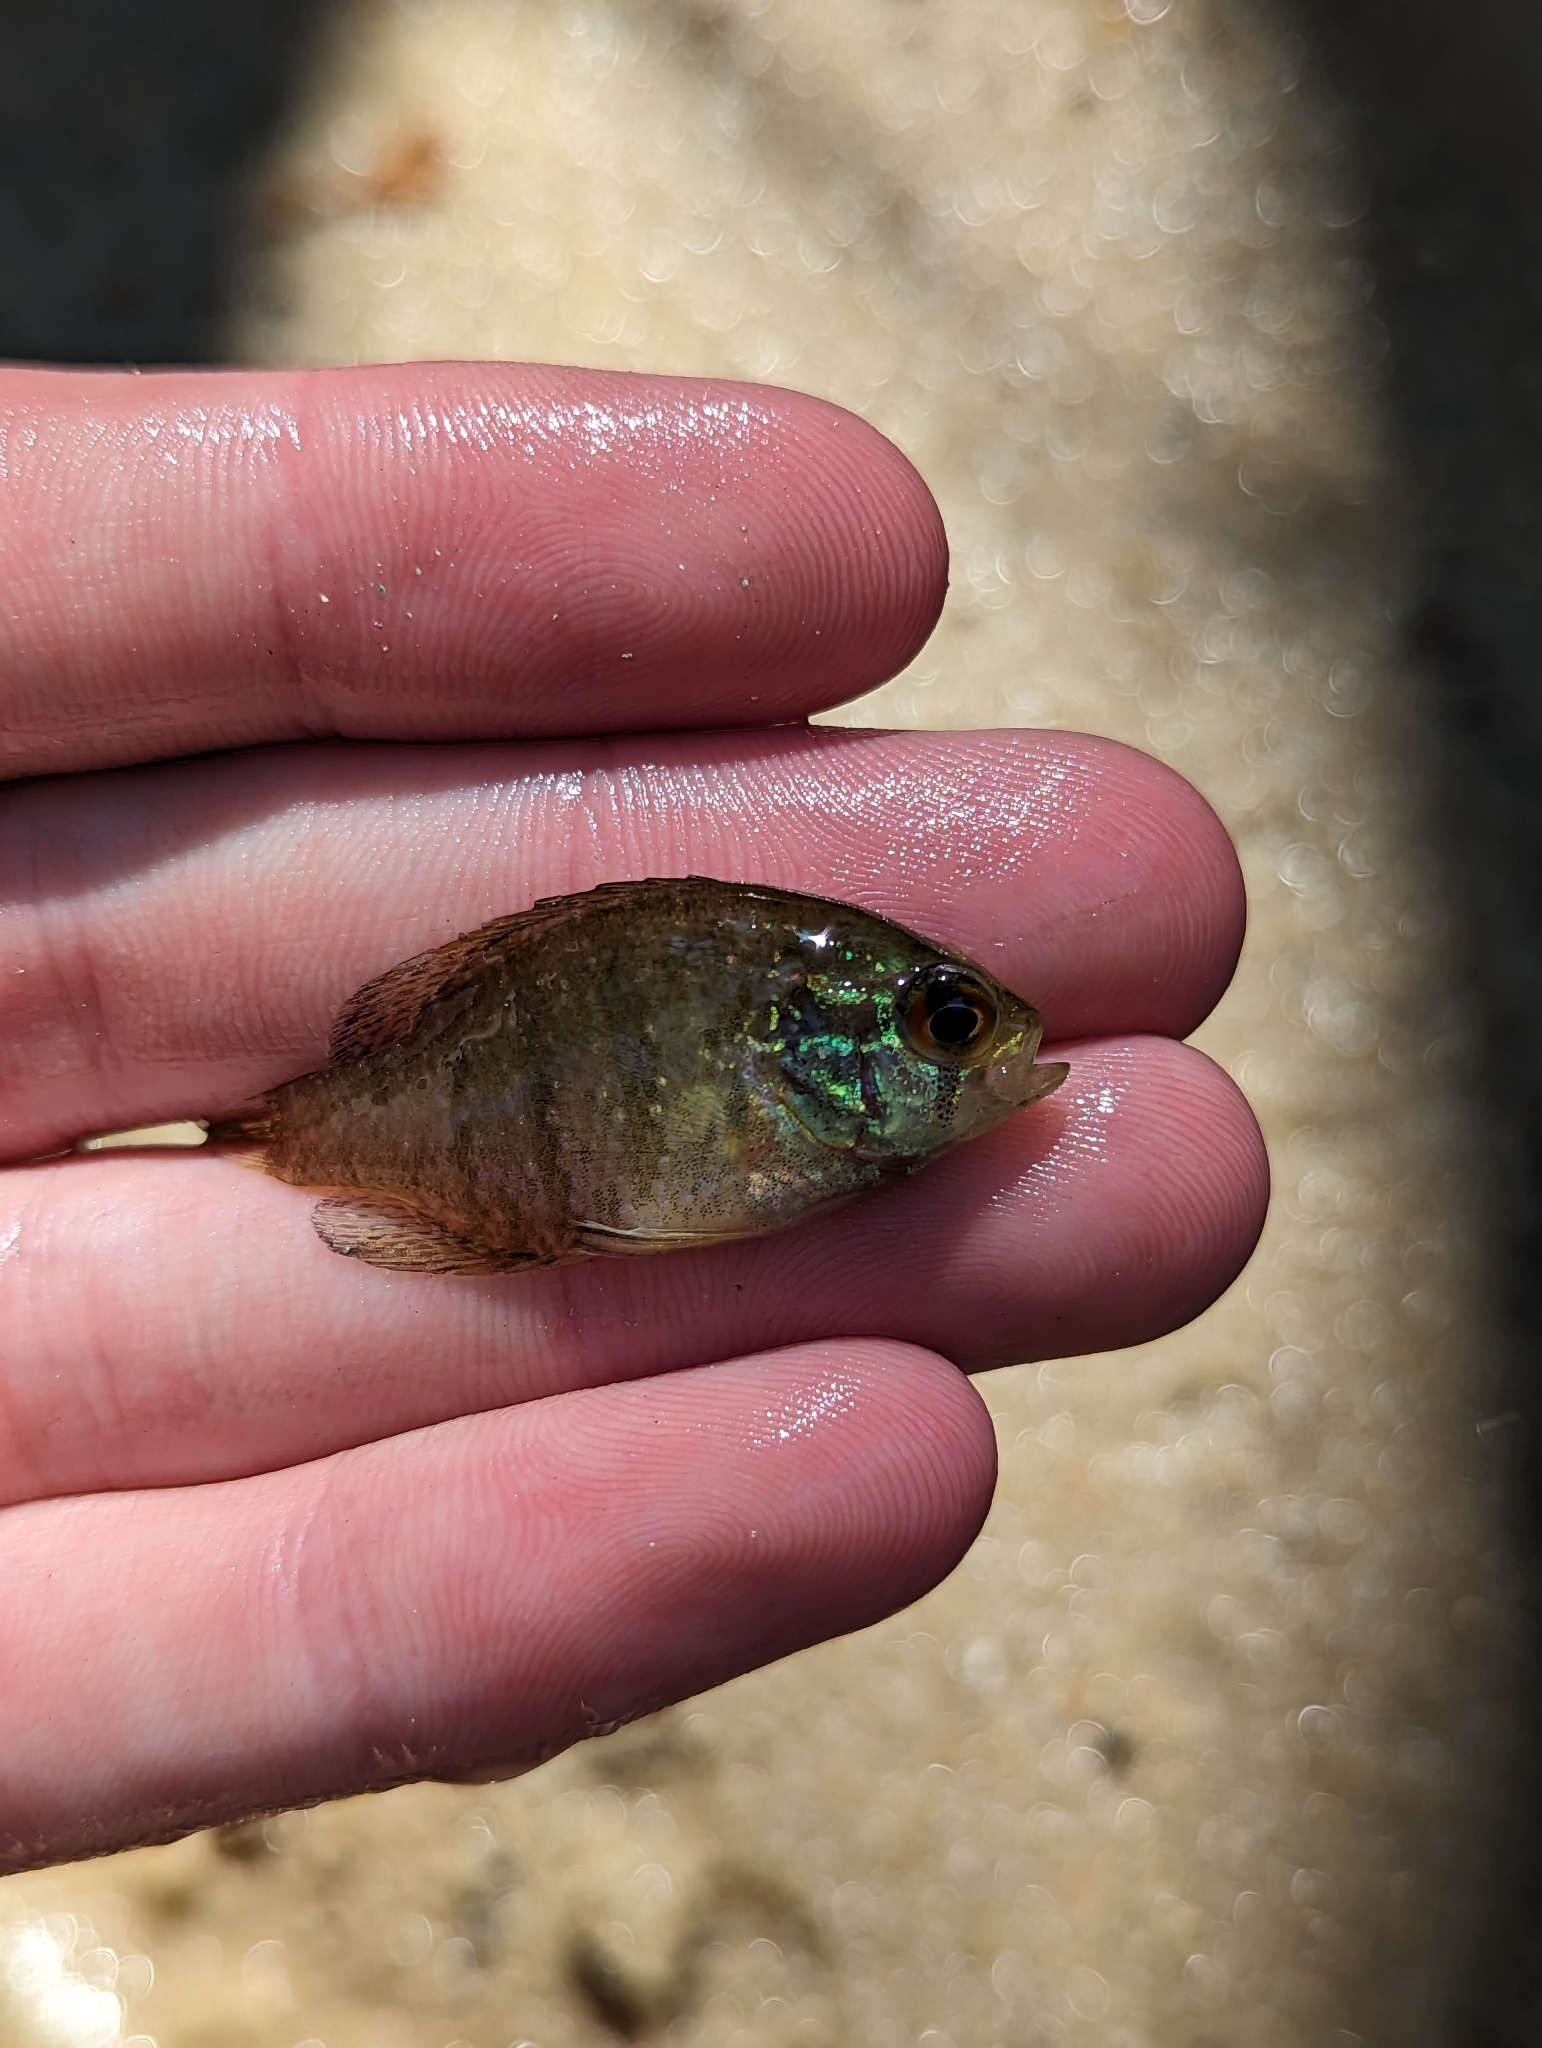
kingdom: Animalia
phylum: Chordata
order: Perciformes
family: Centrarchidae
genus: Enneacanthus
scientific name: Enneacanthus obesus
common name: Banded sunfish
